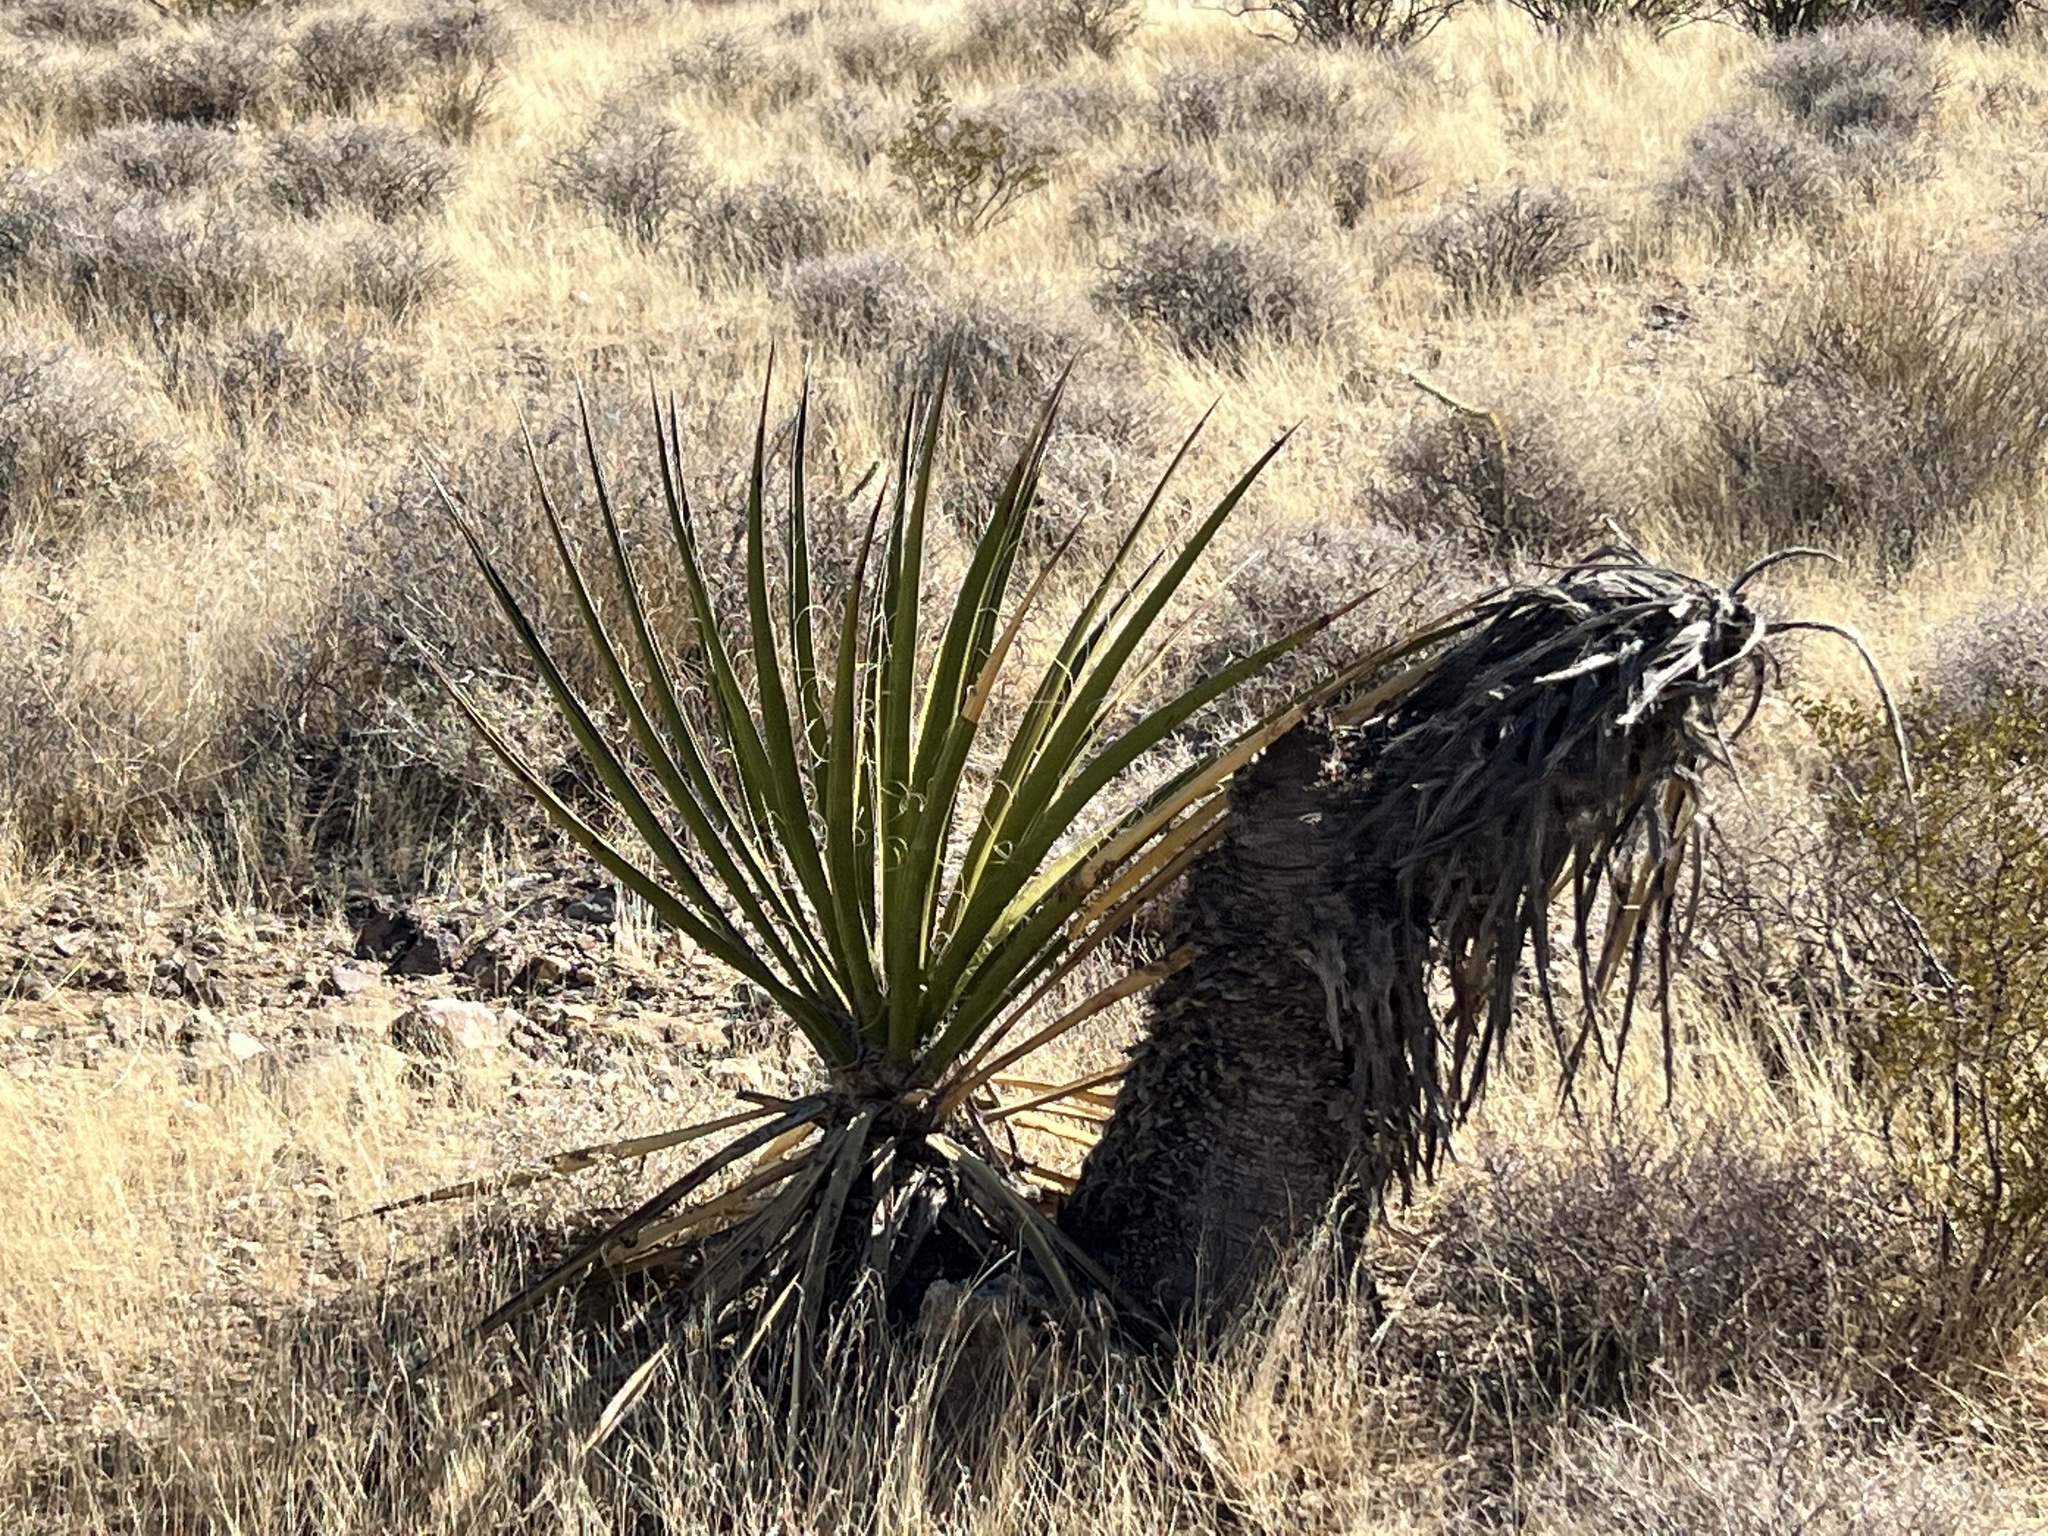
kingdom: Plantae
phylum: Tracheophyta
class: Liliopsida
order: Asparagales
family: Asparagaceae
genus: Yucca
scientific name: Yucca schidigera
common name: Mojave yucca
